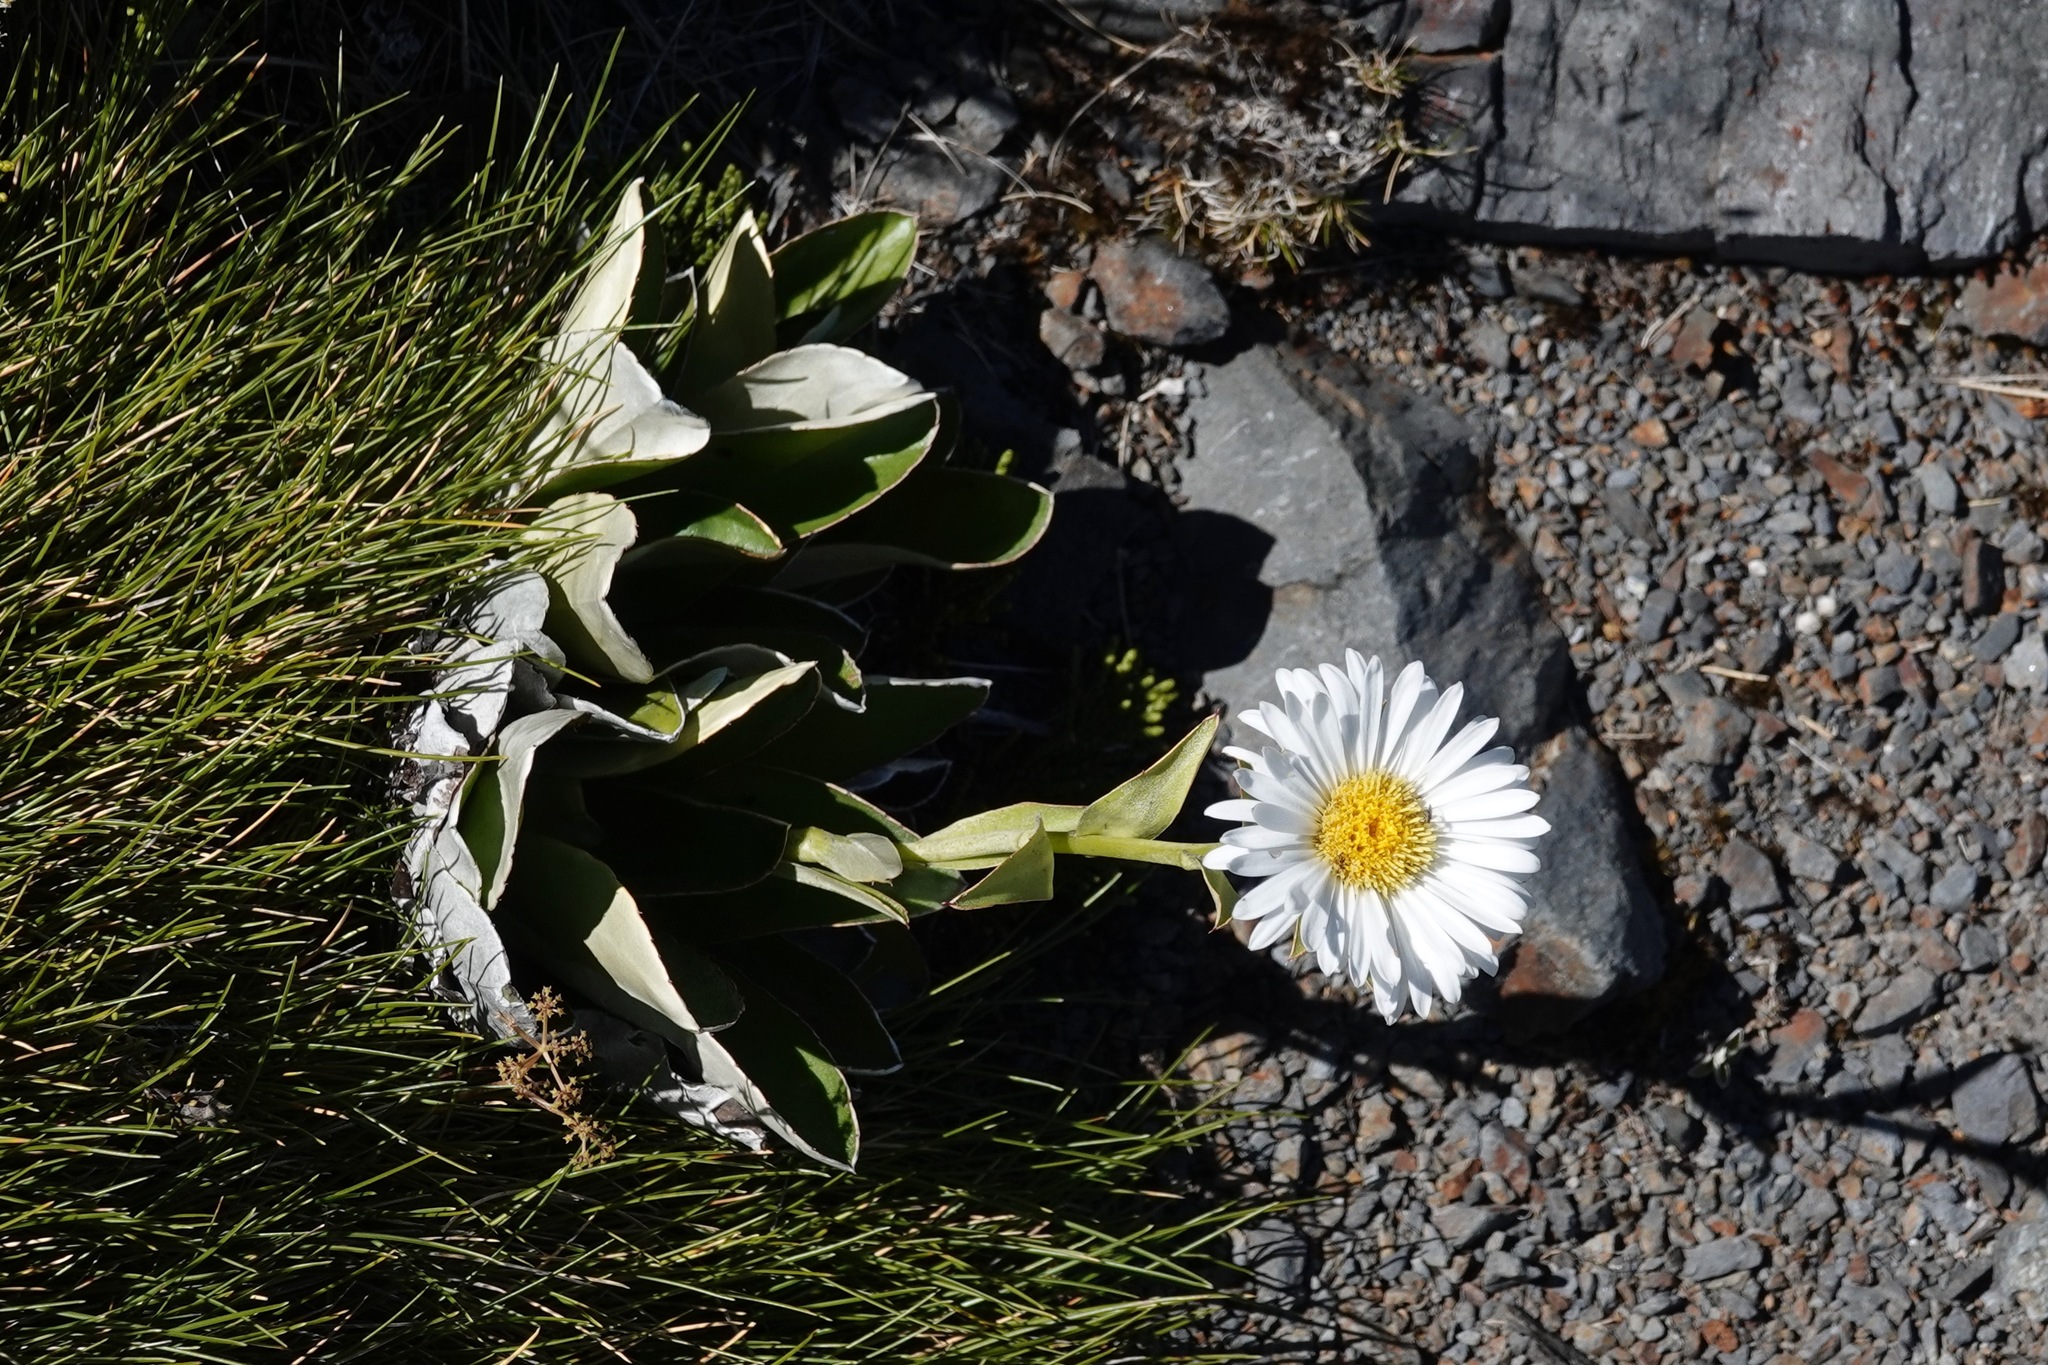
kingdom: Plantae
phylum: Tracheophyta
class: Magnoliopsida
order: Asterales
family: Asteraceae
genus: Celmisia
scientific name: Celmisia dallii
